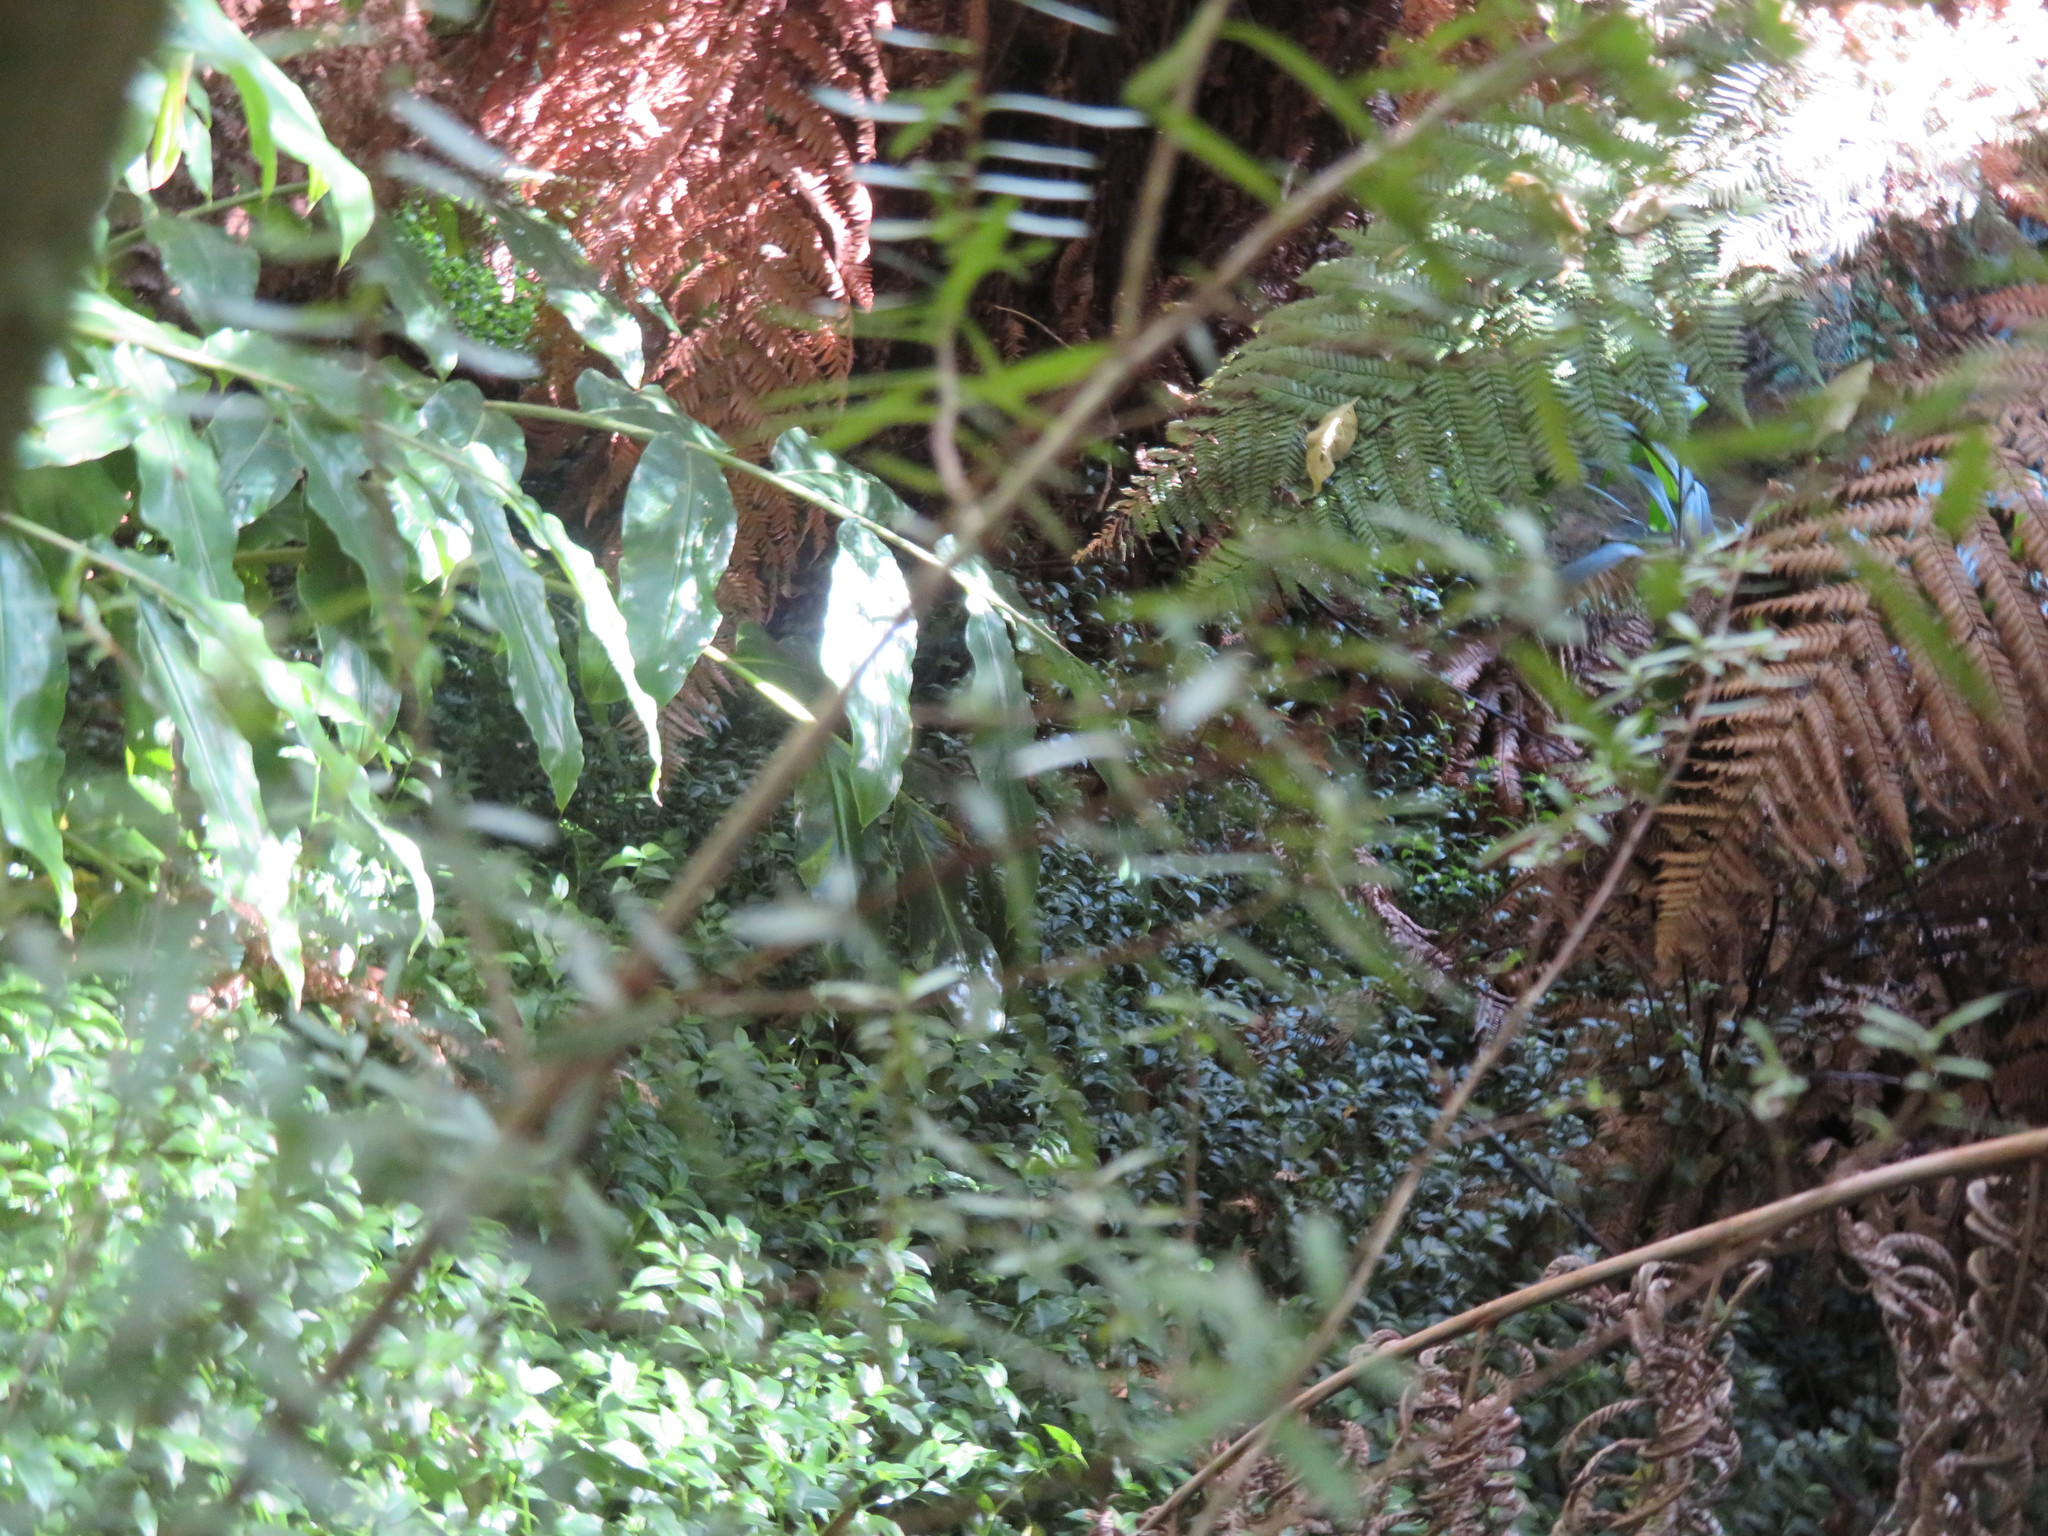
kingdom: Plantae
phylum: Tracheophyta
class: Liliopsida
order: Commelinales
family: Commelinaceae
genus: Tradescantia
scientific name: Tradescantia fluminensis
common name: Wandering-jew
